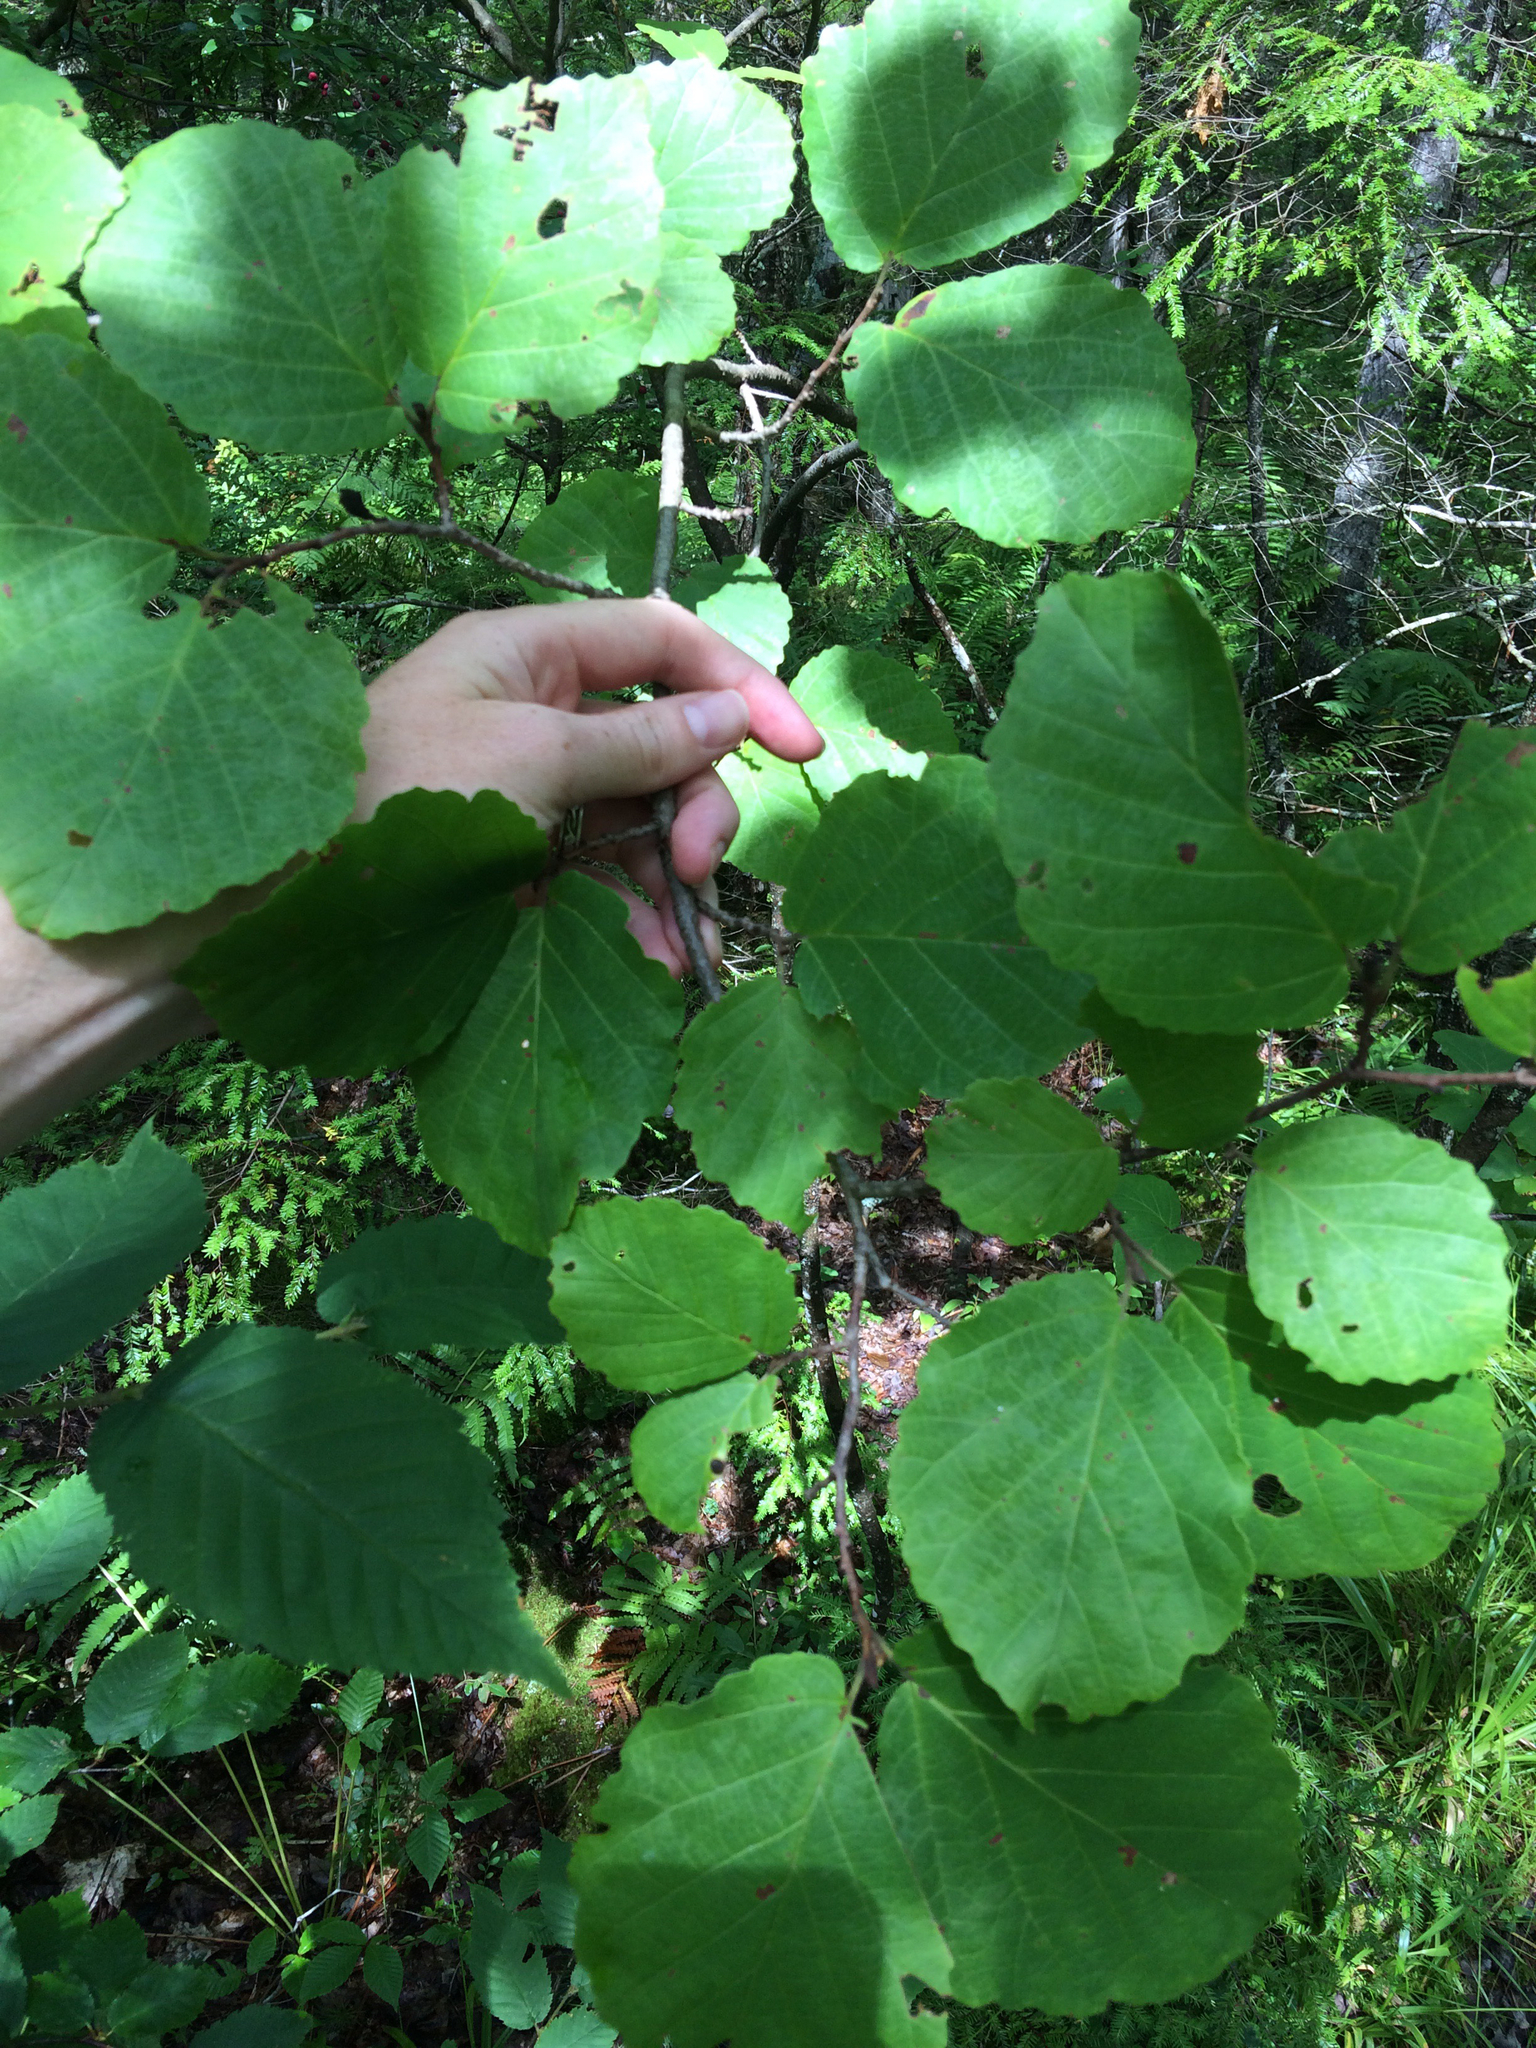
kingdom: Plantae
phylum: Tracheophyta
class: Magnoliopsida
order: Saxifragales
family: Hamamelidaceae
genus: Hamamelis
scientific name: Hamamelis virginiana
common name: Witch-hazel
